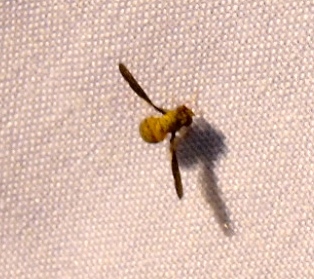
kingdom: Animalia
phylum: Arthropoda
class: Insecta
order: Diptera
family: Ulidiidae
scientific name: Ulidiidae
